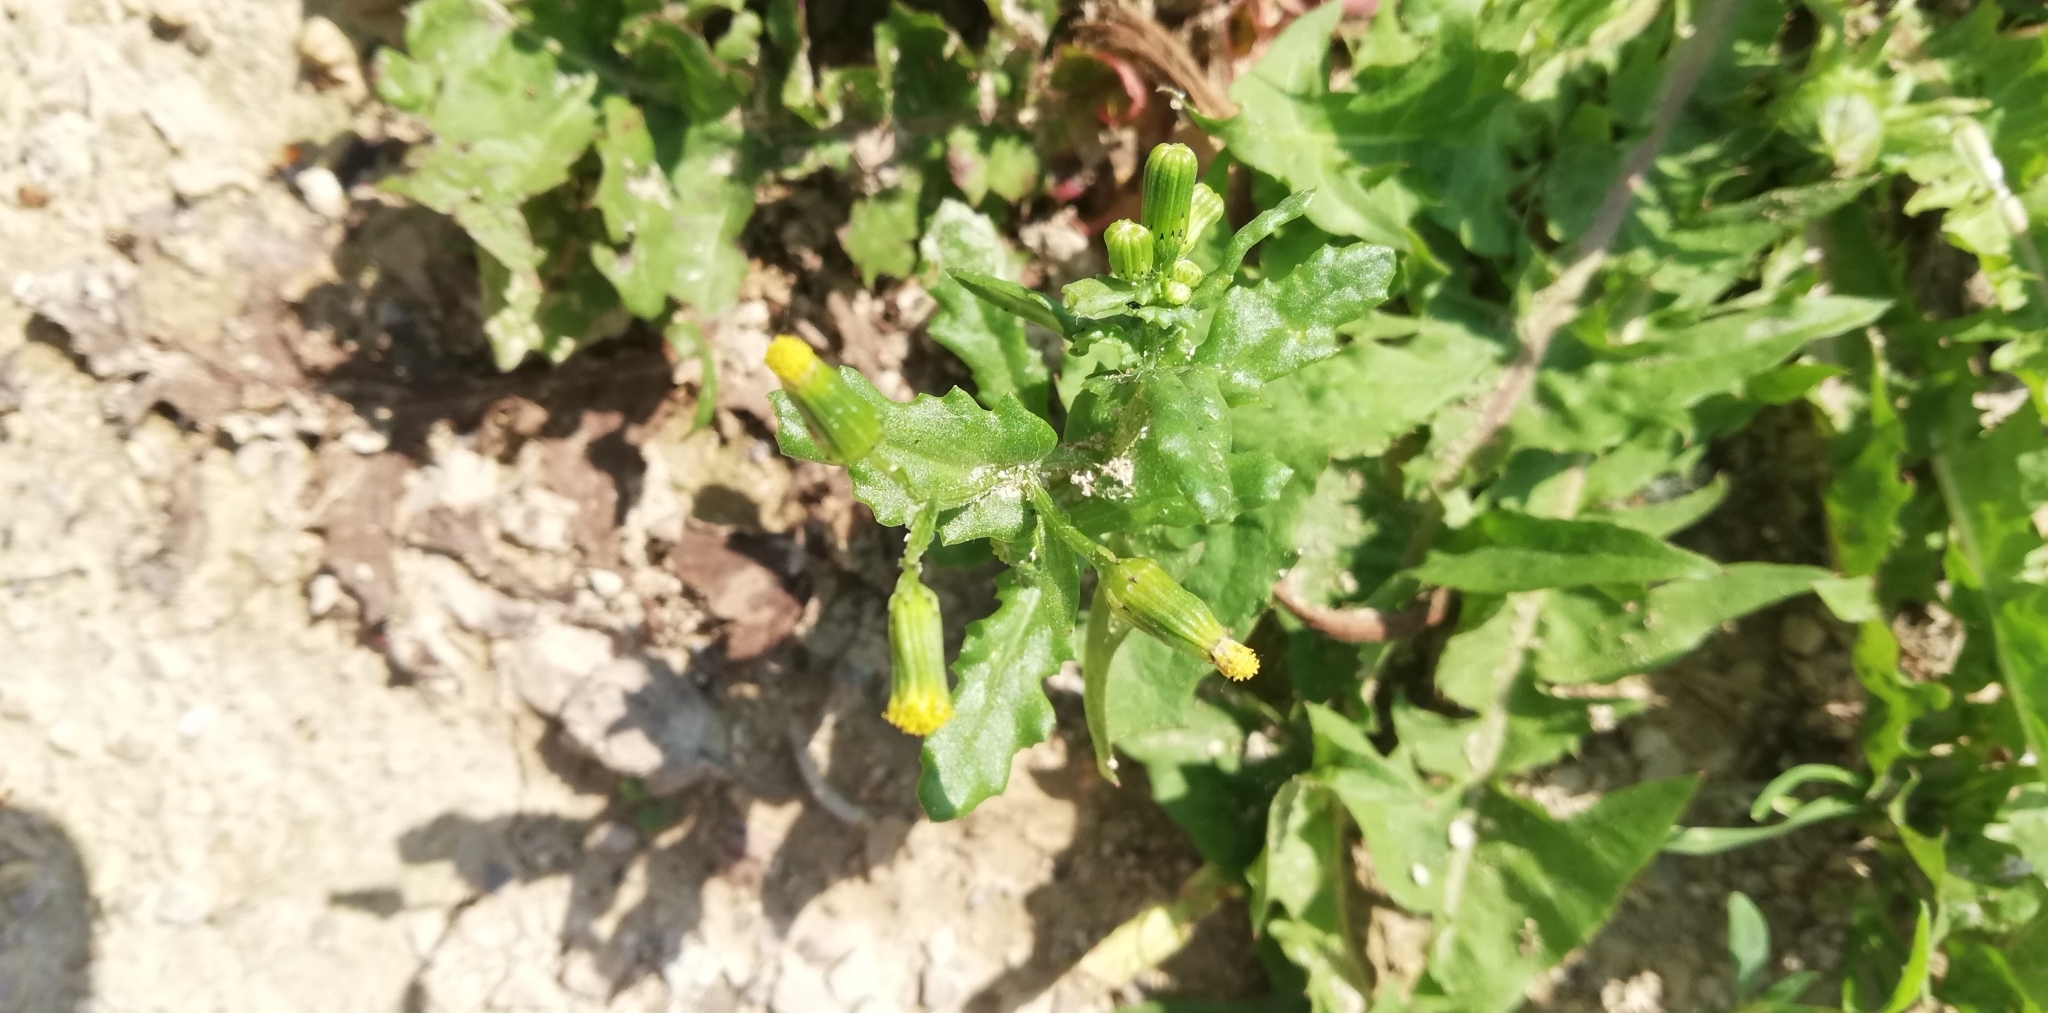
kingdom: Plantae
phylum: Tracheophyta
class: Magnoliopsida
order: Asterales
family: Asteraceae
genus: Senecio
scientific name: Senecio vulgaris
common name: Old-man-in-the-spring
